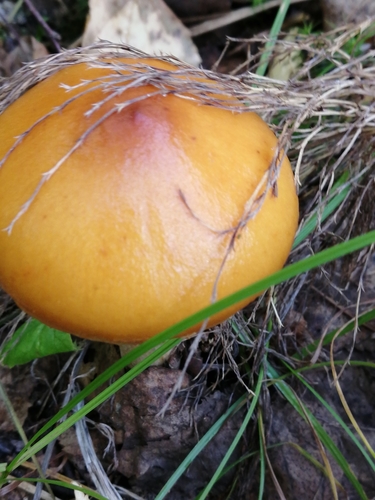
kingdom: Fungi
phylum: Basidiomycota
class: Agaricomycetes
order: Agaricales
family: Cortinariaceae
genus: Cortinarius
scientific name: Cortinarius
